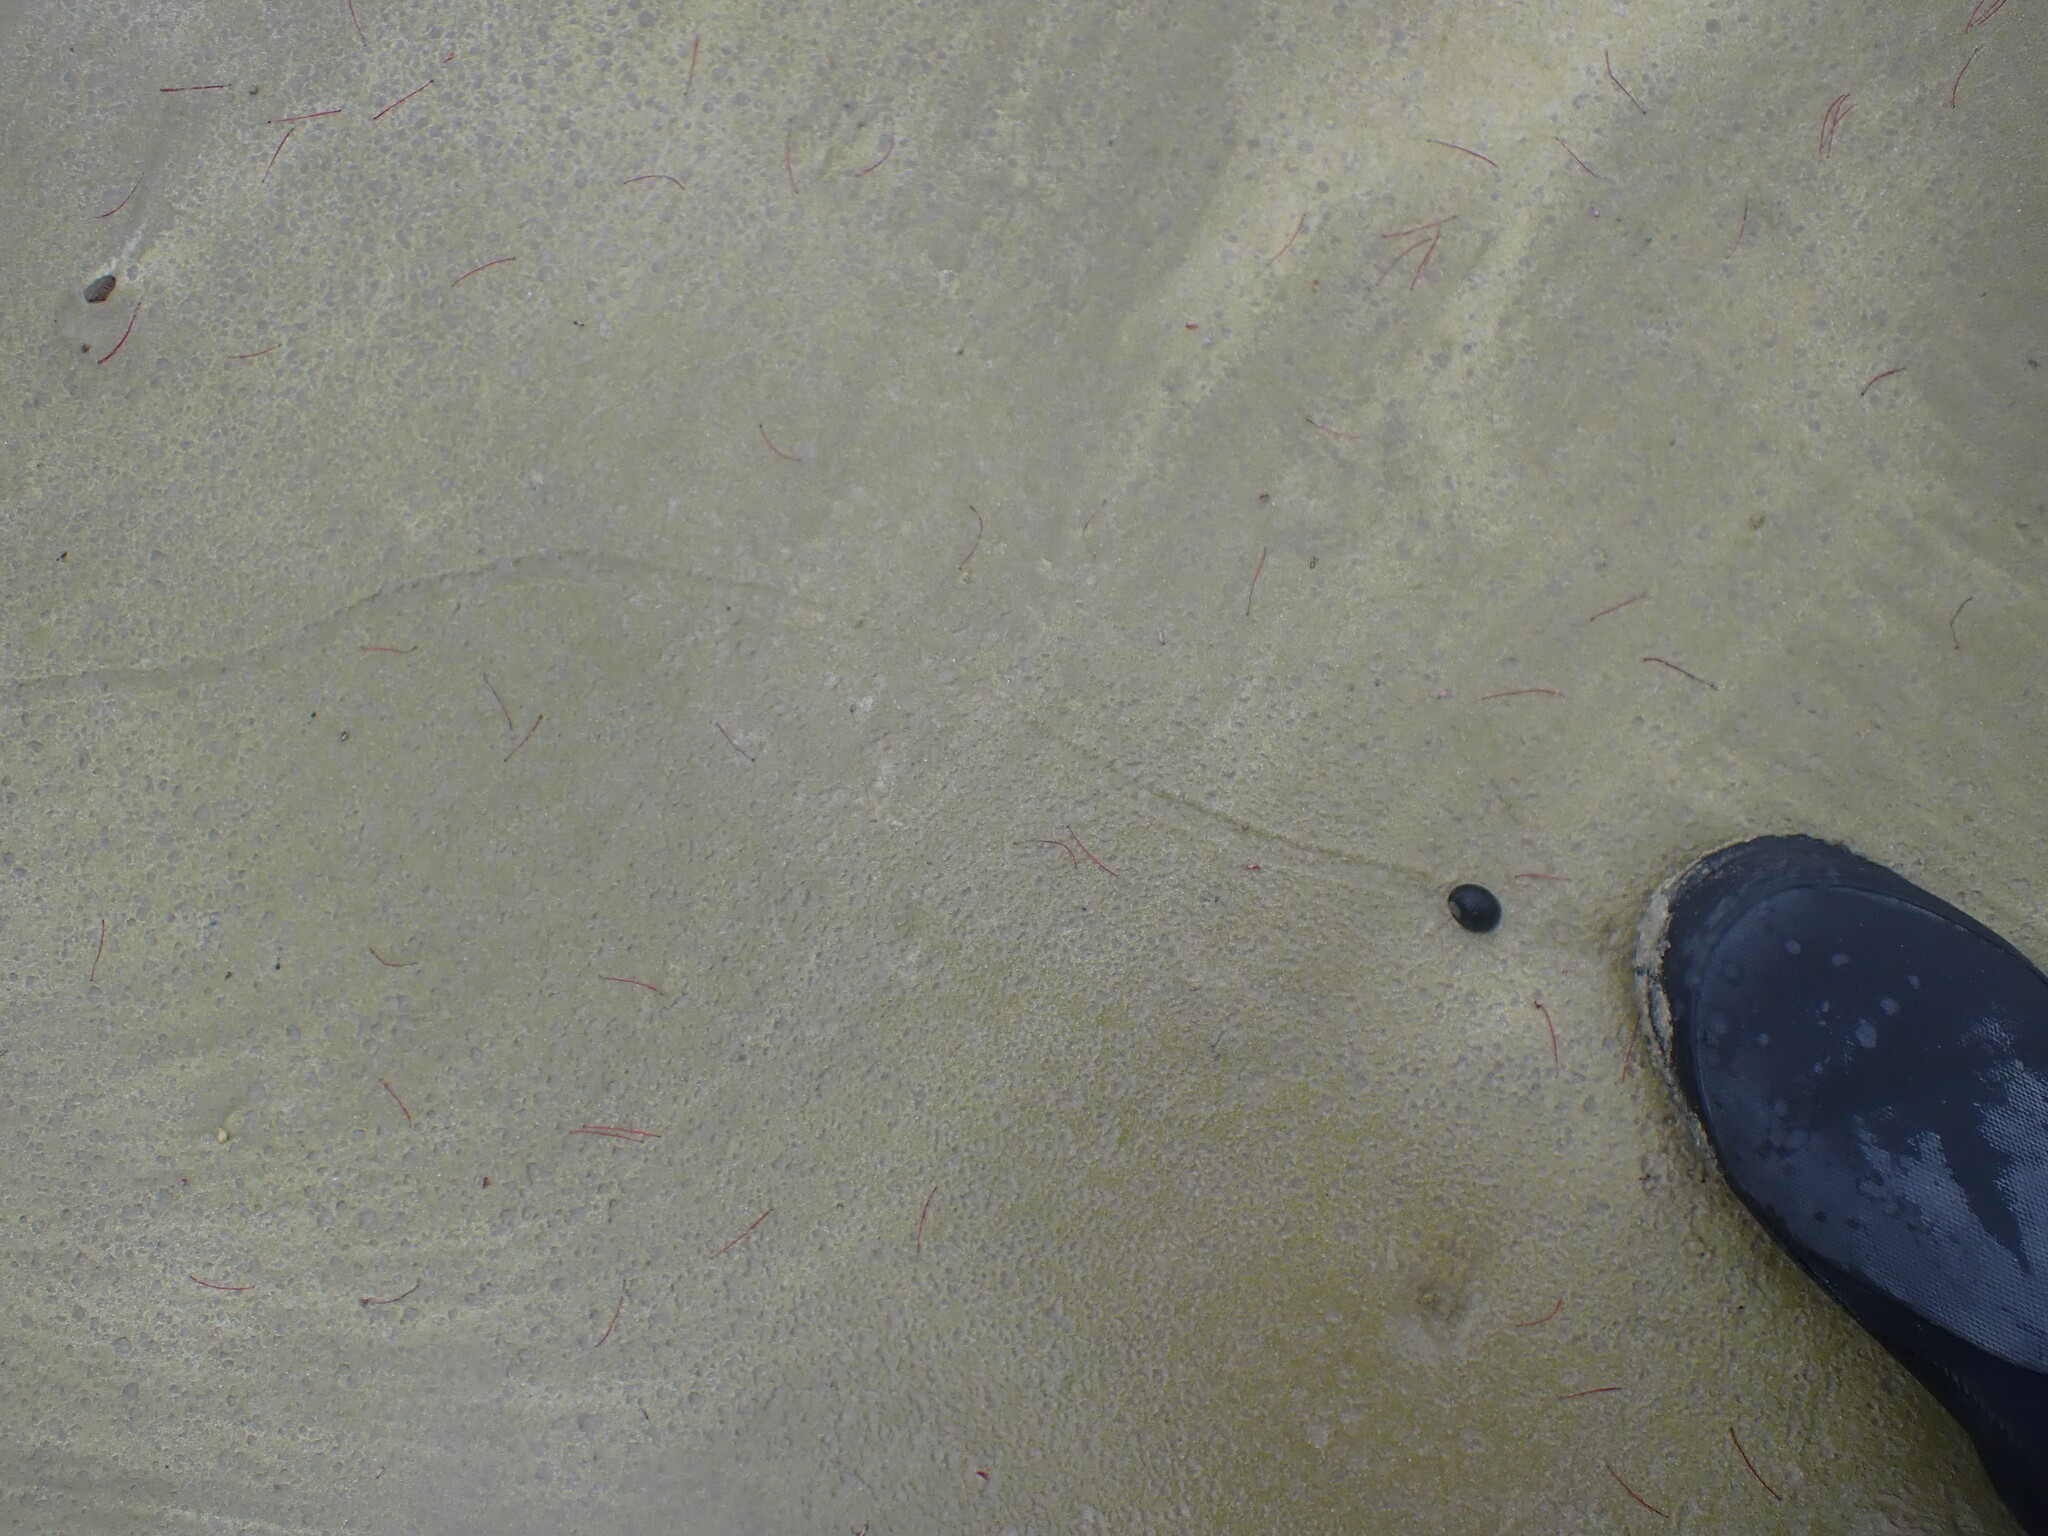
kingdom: Animalia
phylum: Mollusca
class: Gastropoda
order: Cycloneritida
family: Neritidae
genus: Nerita
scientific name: Nerita melanotragus
